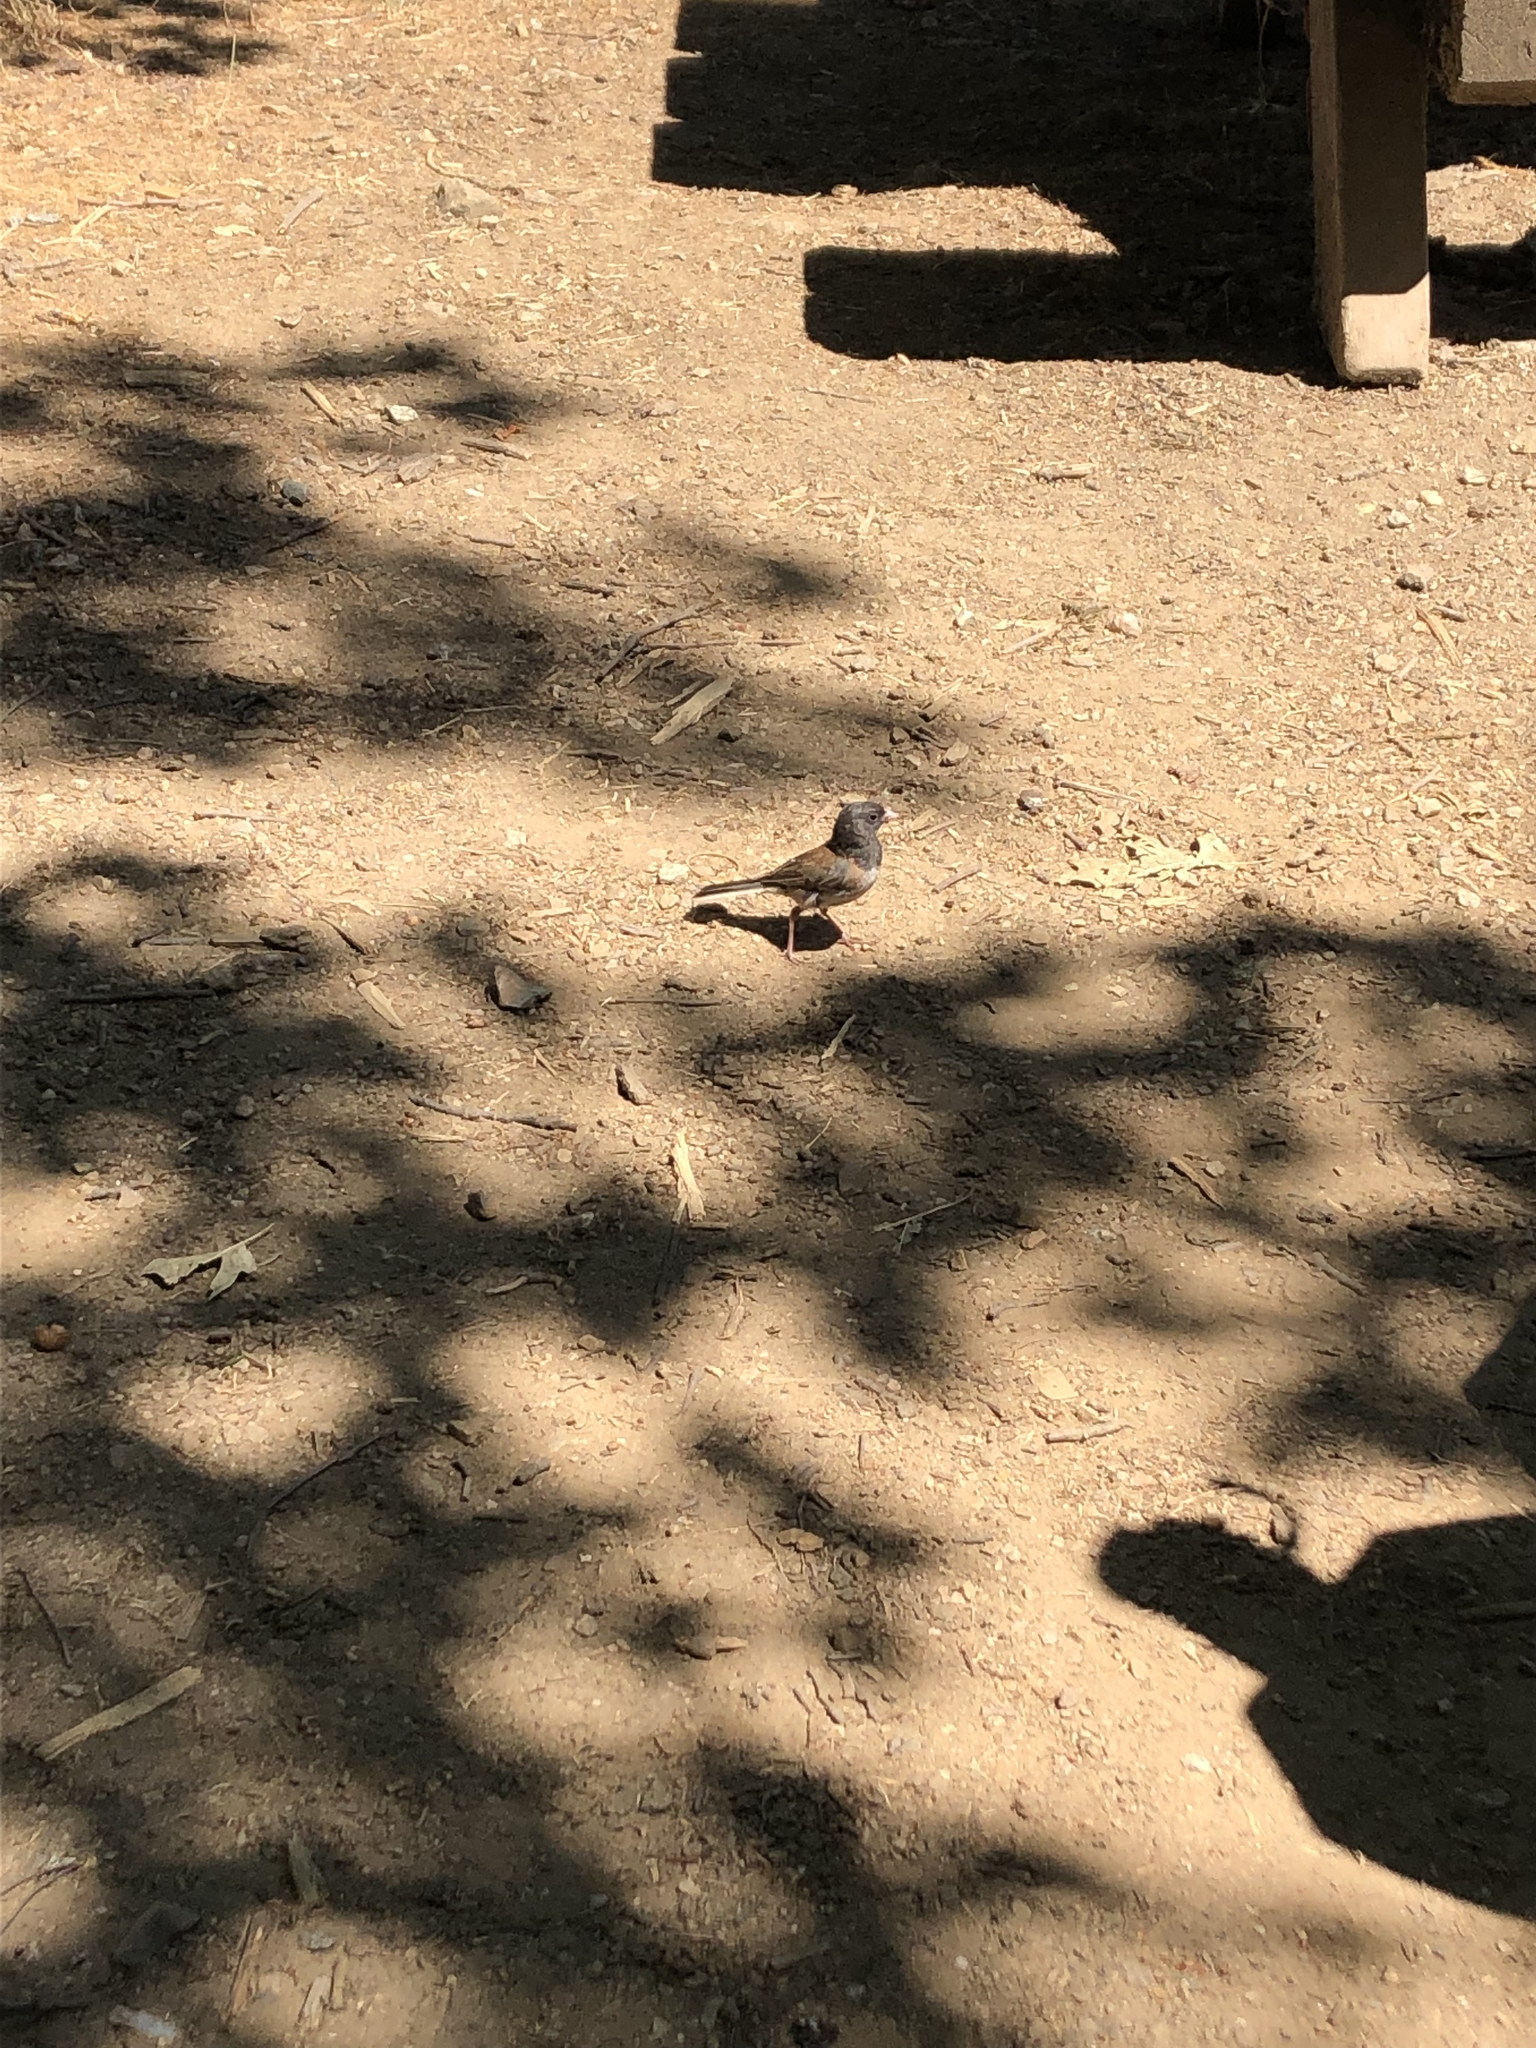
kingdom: Animalia
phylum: Chordata
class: Aves
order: Passeriformes
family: Passerellidae
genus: Junco
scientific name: Junco hyemalis
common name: Dark-eyed junco
